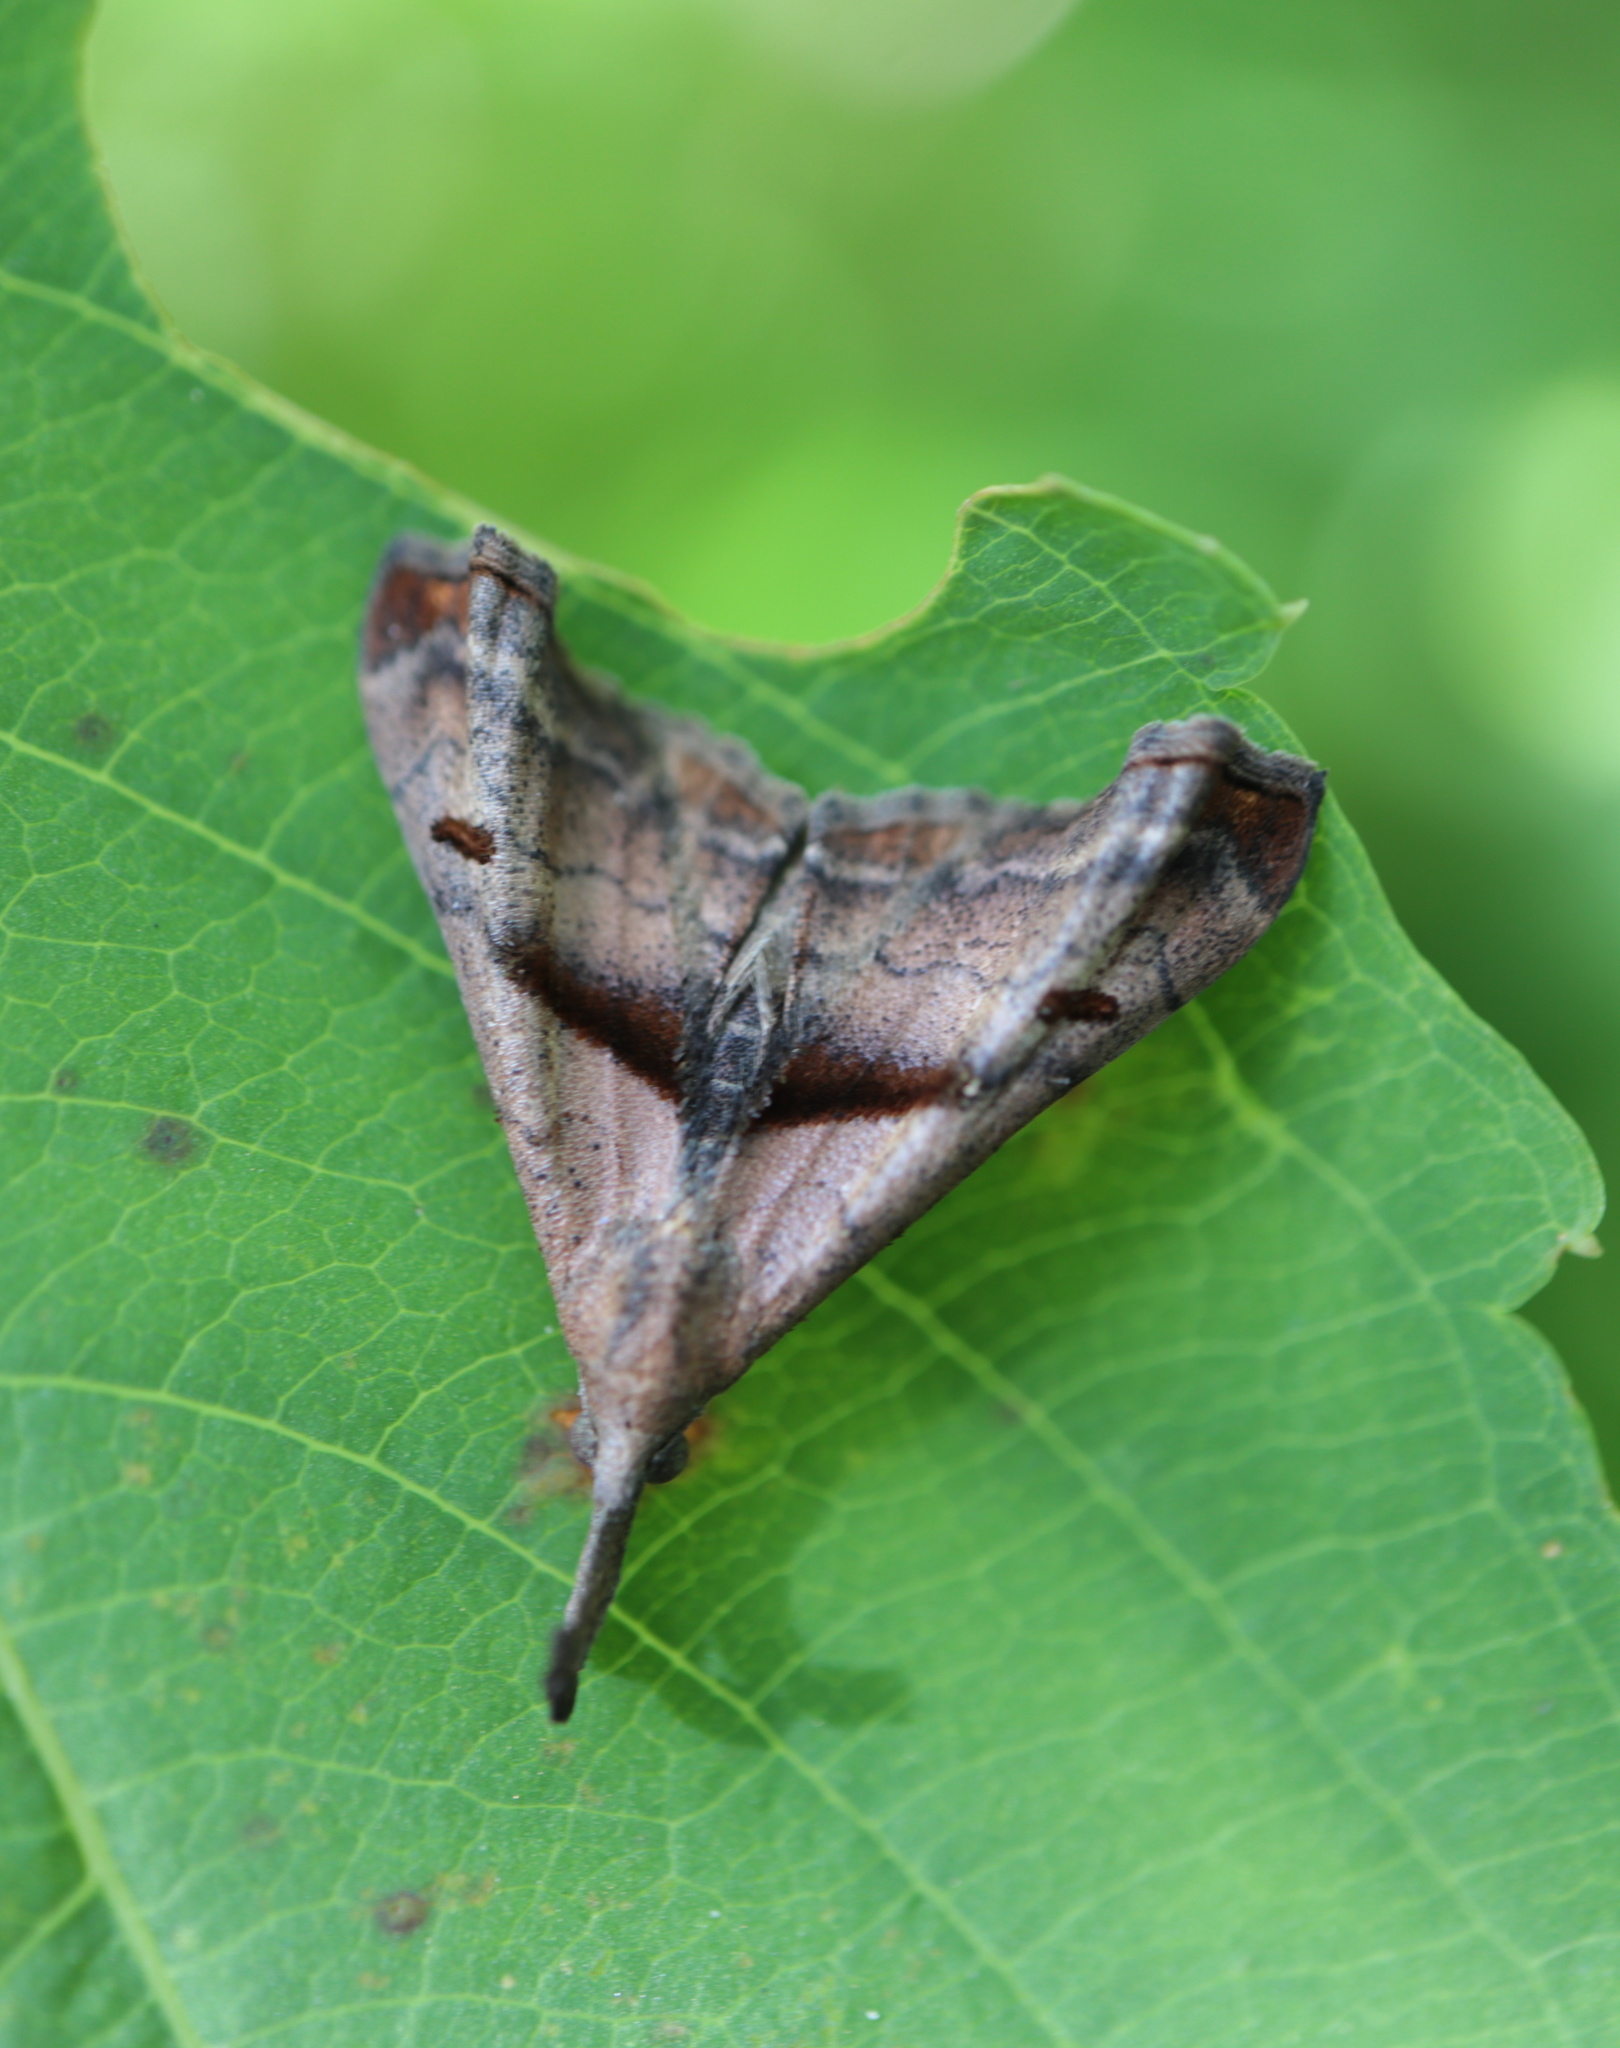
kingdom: Animalia
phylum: Arthropoda
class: Insecta
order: Lepidoptera
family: Erebidae
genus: Palthis
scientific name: Palthis angulalis
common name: Dark-spotted palthis moth
